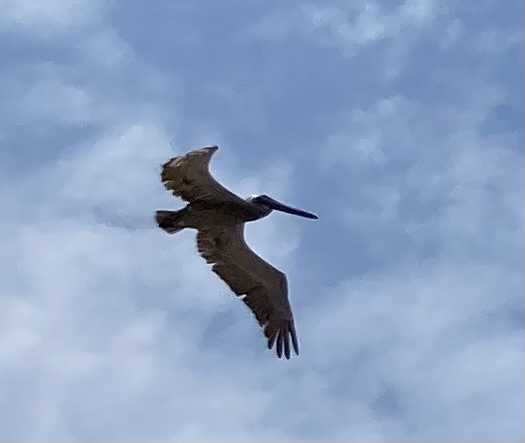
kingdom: Animalia
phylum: Chordata
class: Aves
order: Pelecaniformes
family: Pelecanidae
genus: Pelecanus
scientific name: Pelecanus occidentalis
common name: Brown pelican
